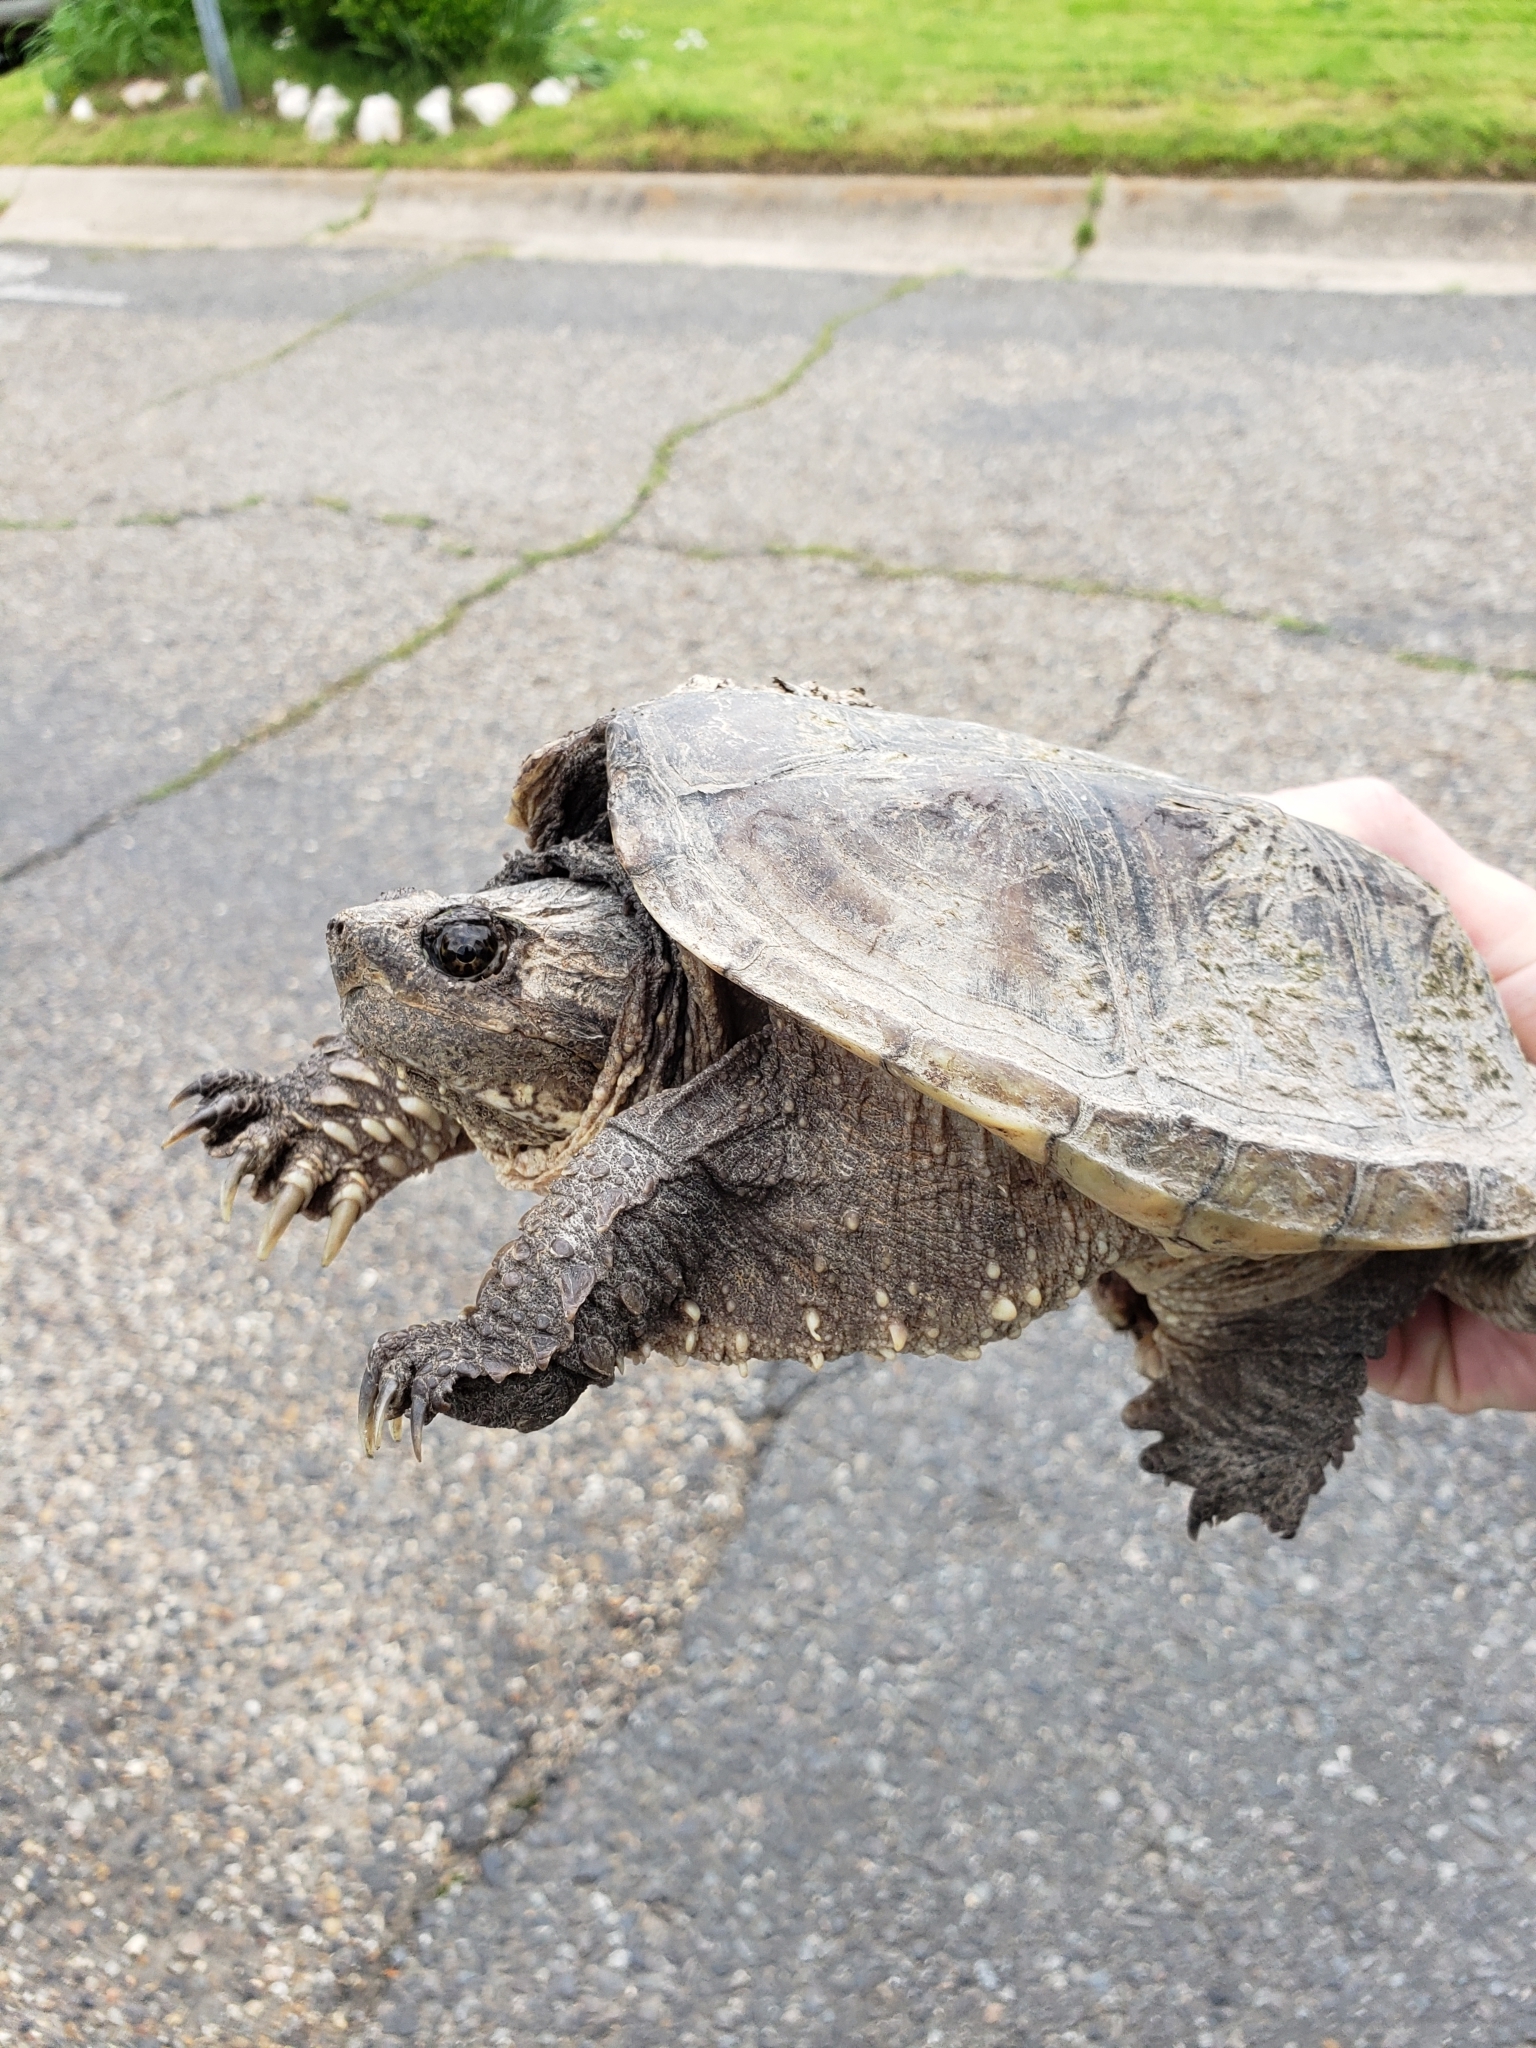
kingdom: Animalia
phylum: Chordata
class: Testudines
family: Chelydridae
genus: Chelydra
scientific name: Chelydra serpentina
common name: Common snapping turtle
